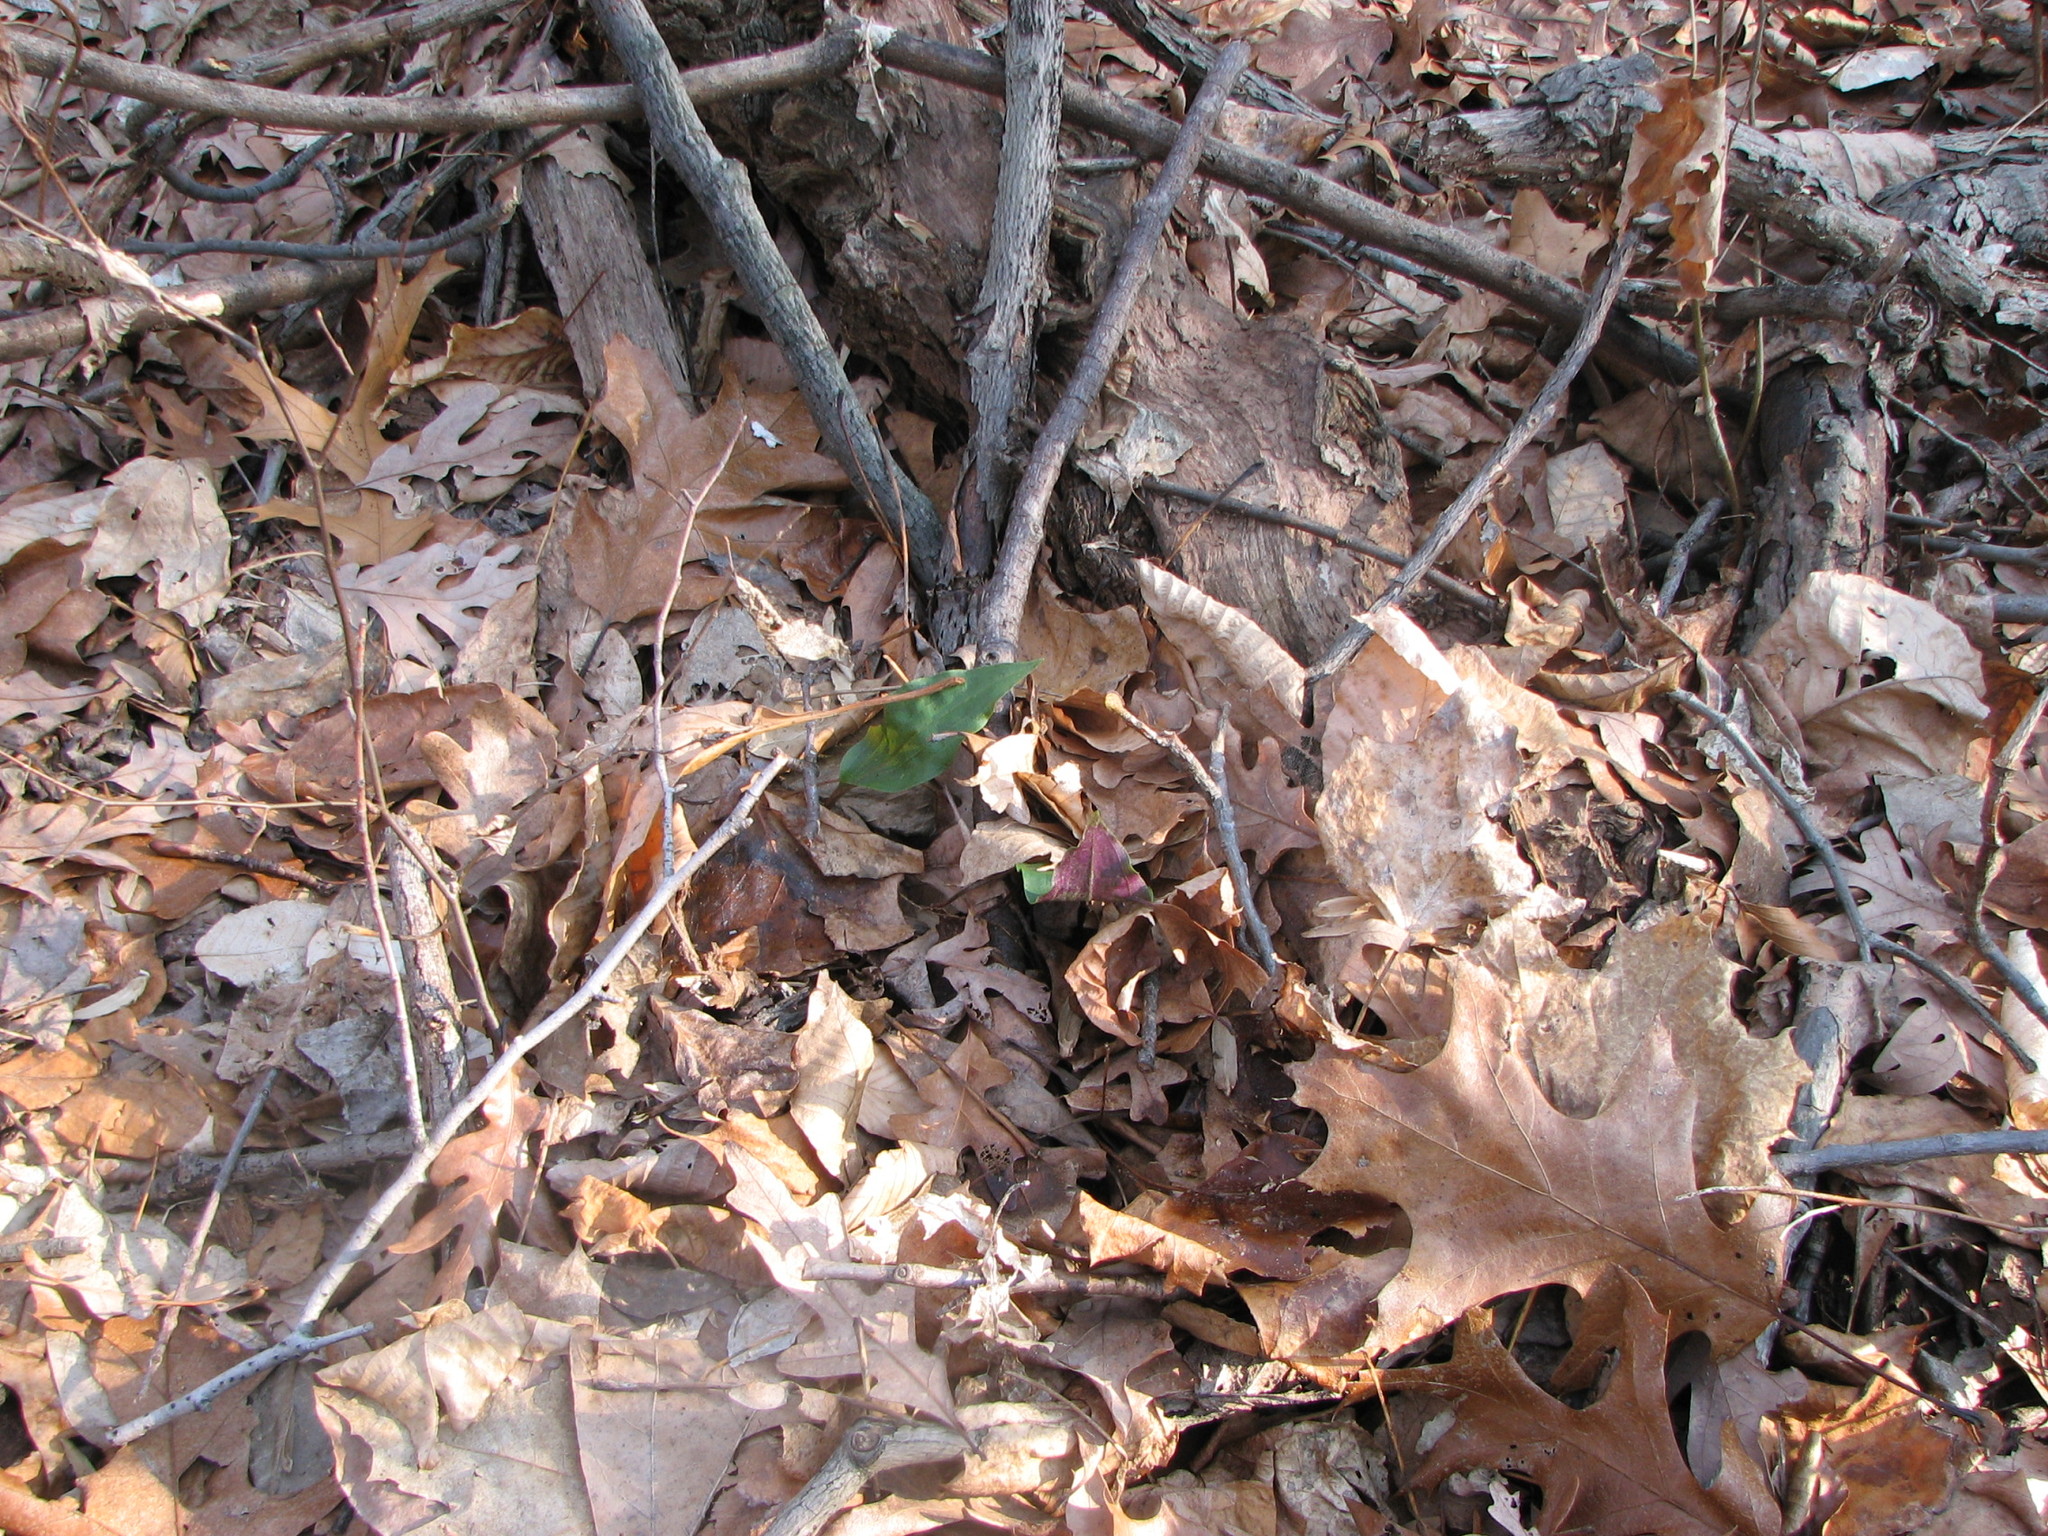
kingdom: Plantae
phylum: Tracheophyta
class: Liliopsida
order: Asparagales
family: Orchidaceae
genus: Tipularia
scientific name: Tipularia discolor
